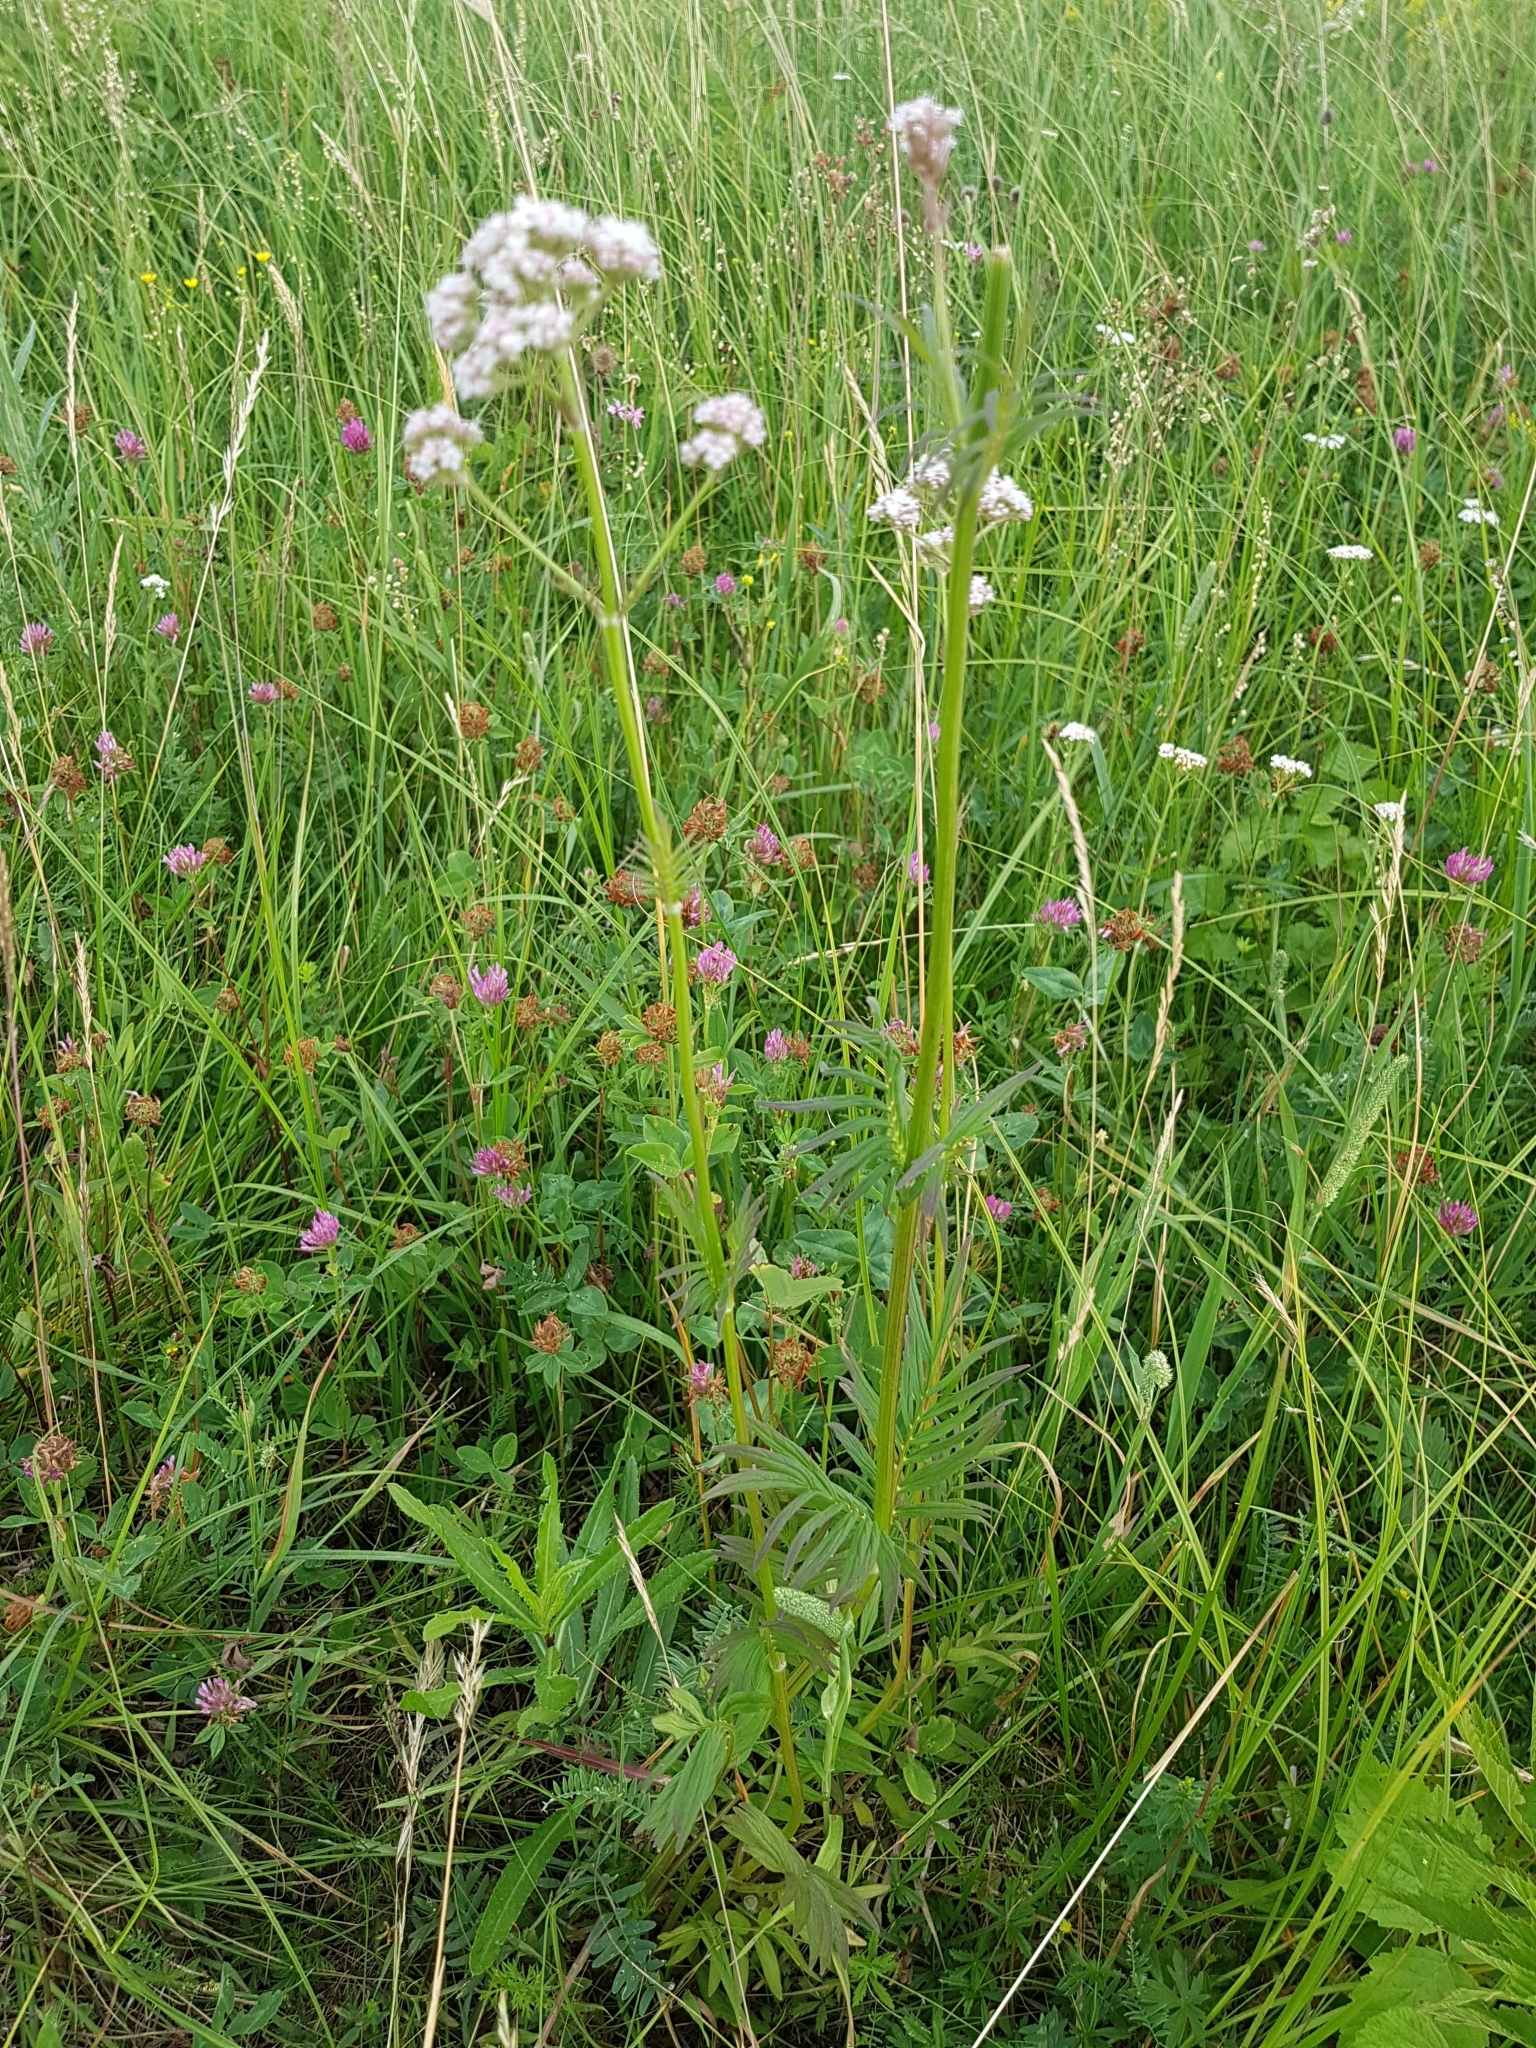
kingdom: Plantae
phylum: Tracheophyta
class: Magnoliopsida
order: Dipsacales
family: Caprifoliaceae
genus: Valeriana
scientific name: Valeriana officinalis
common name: Common valerian
